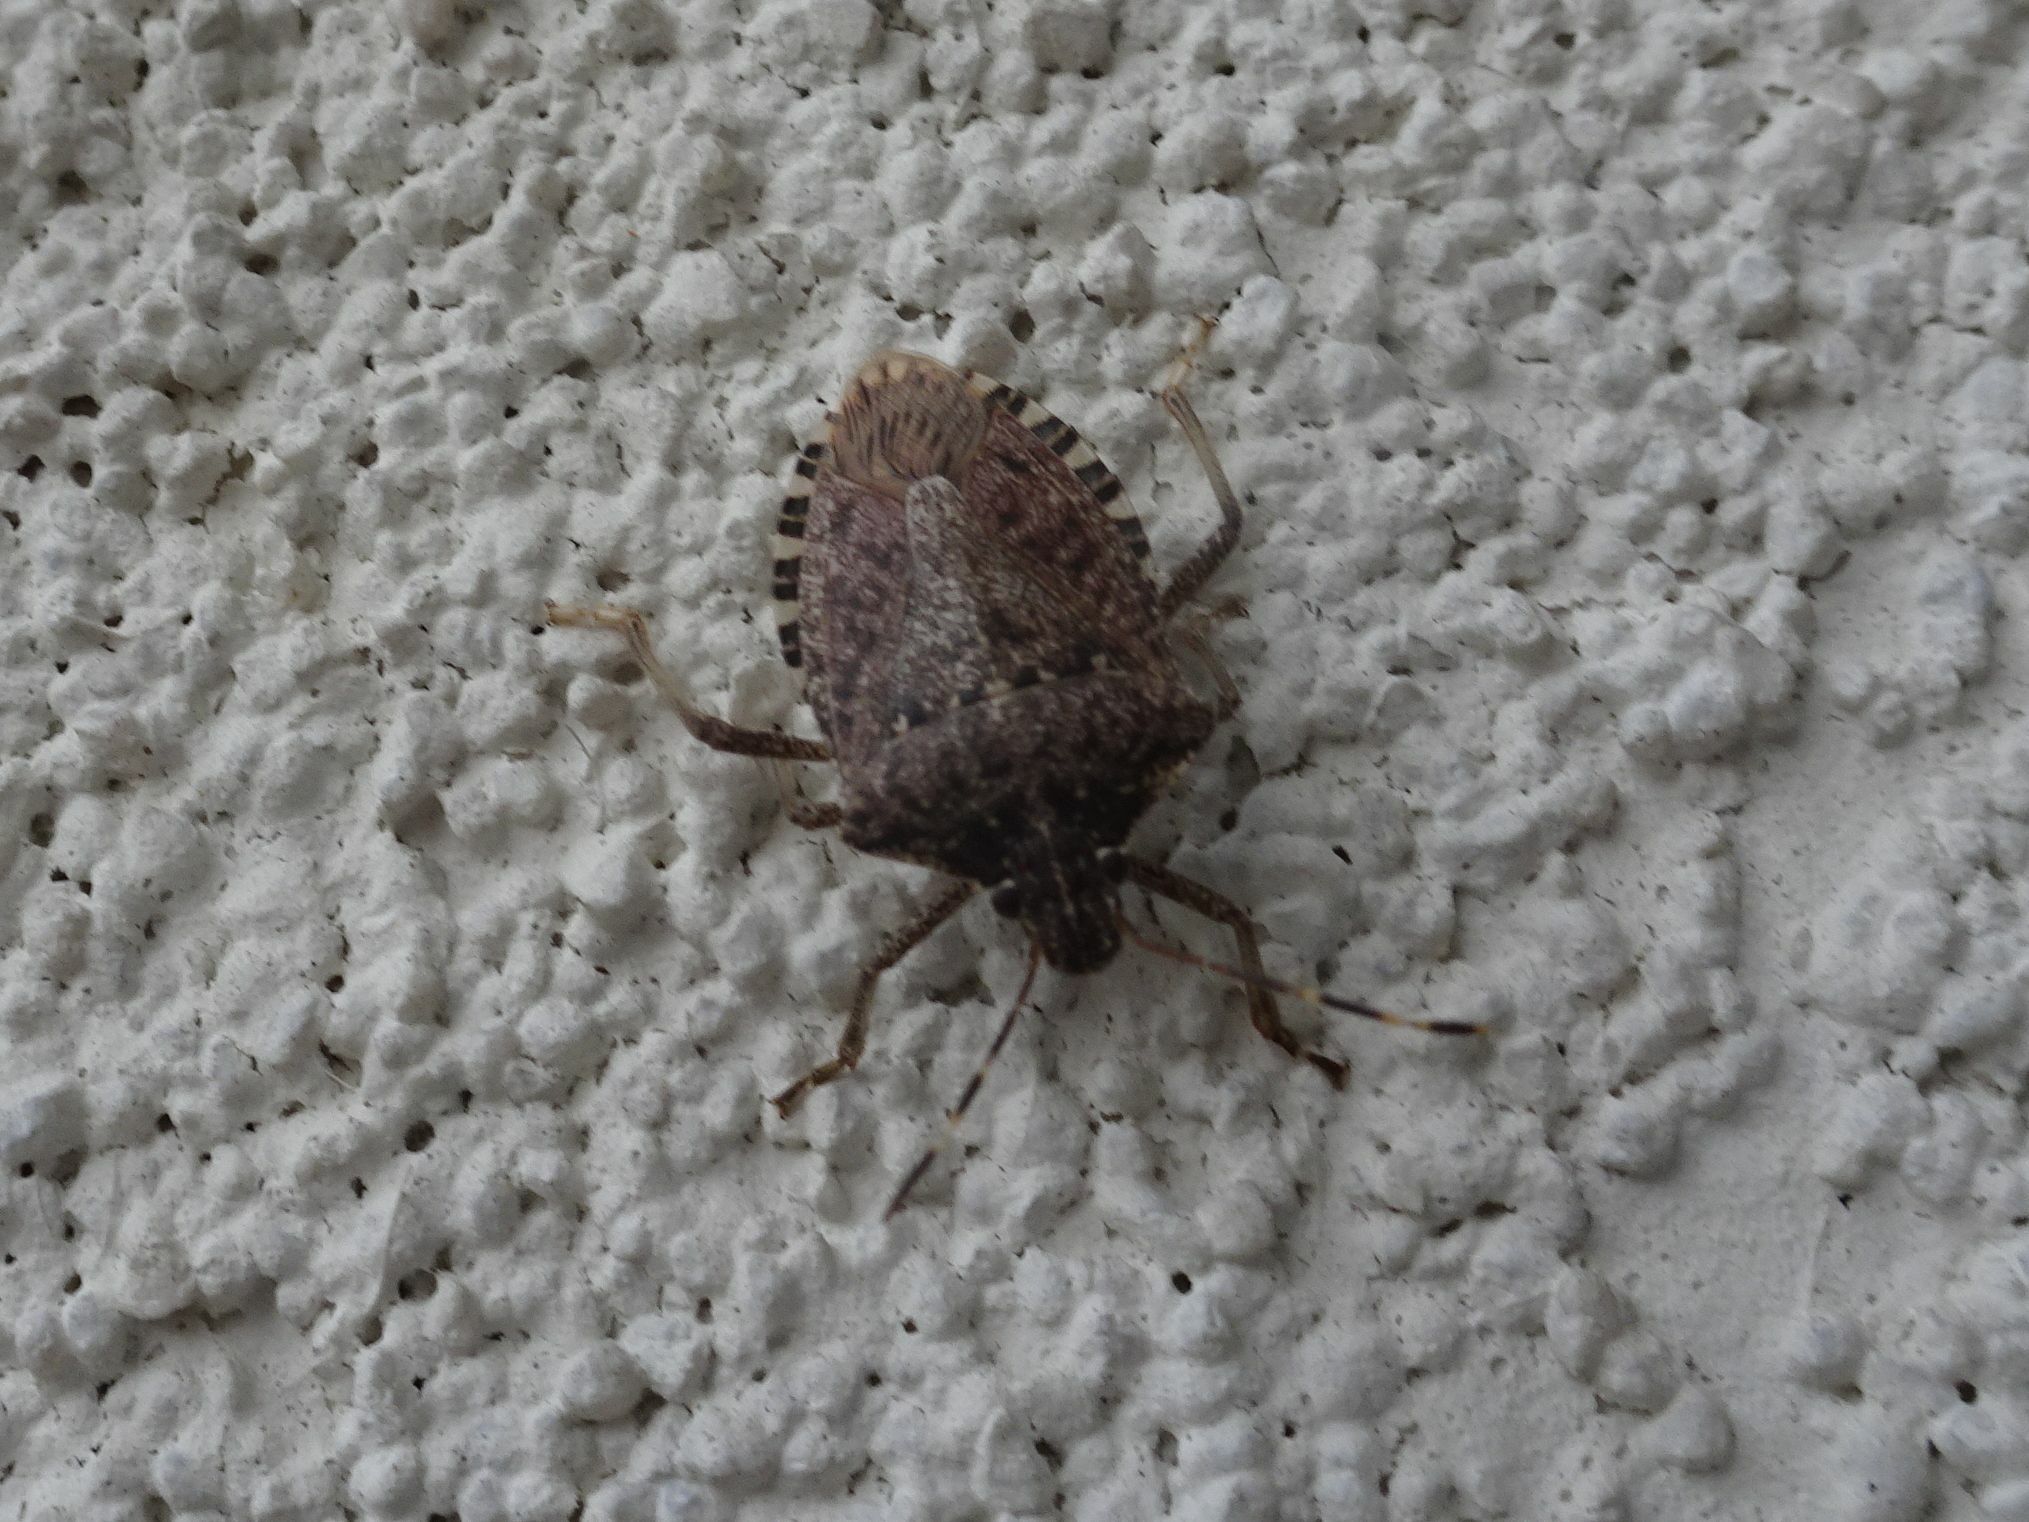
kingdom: Animalia
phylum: Arthropoda
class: Insecta
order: Hemiptera
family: Pentatomidae
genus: Halyomorpha
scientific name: Halyomorpha halys
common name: Brown marmorated stink bug
